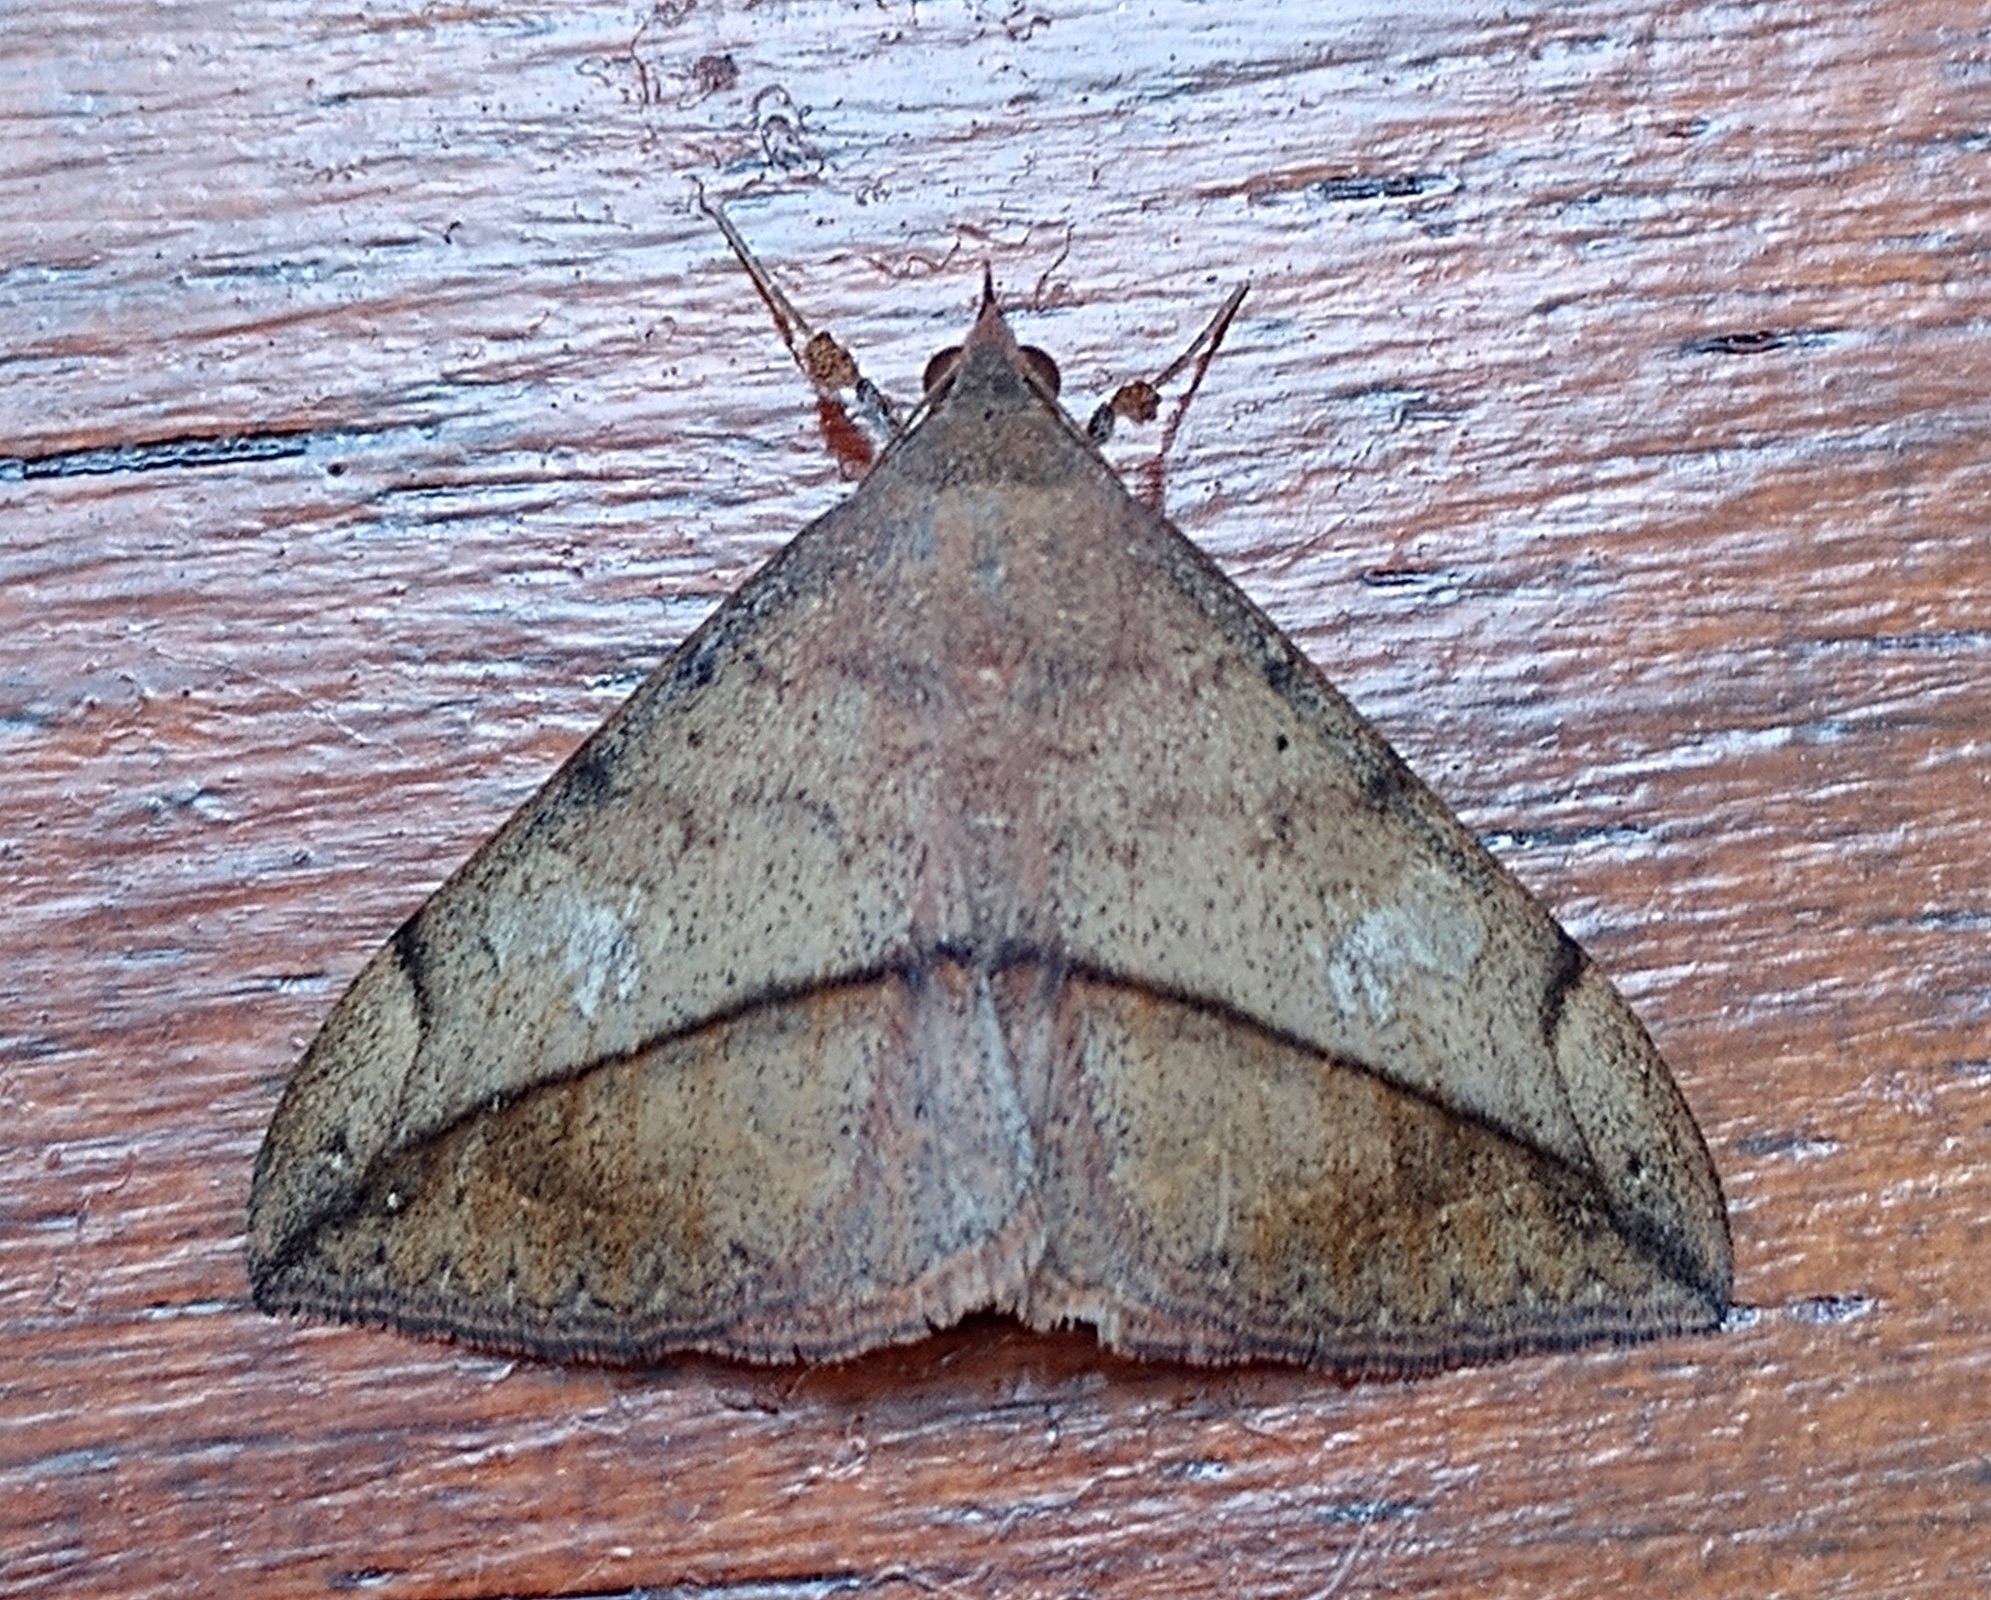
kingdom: Animalia
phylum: Arthropoda
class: Insecta
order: Lepidoptera
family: Erebidae
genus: Anticarsia
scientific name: Anticarsia gemmatalis
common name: Cutworm moth
